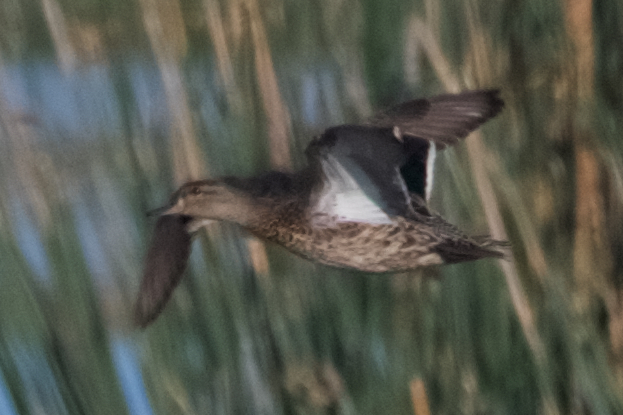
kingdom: Animalia
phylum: Chordata
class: Aves
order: Anseriformes
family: Anatidae
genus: Anas
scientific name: Anas crecca
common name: Eurasian teal
